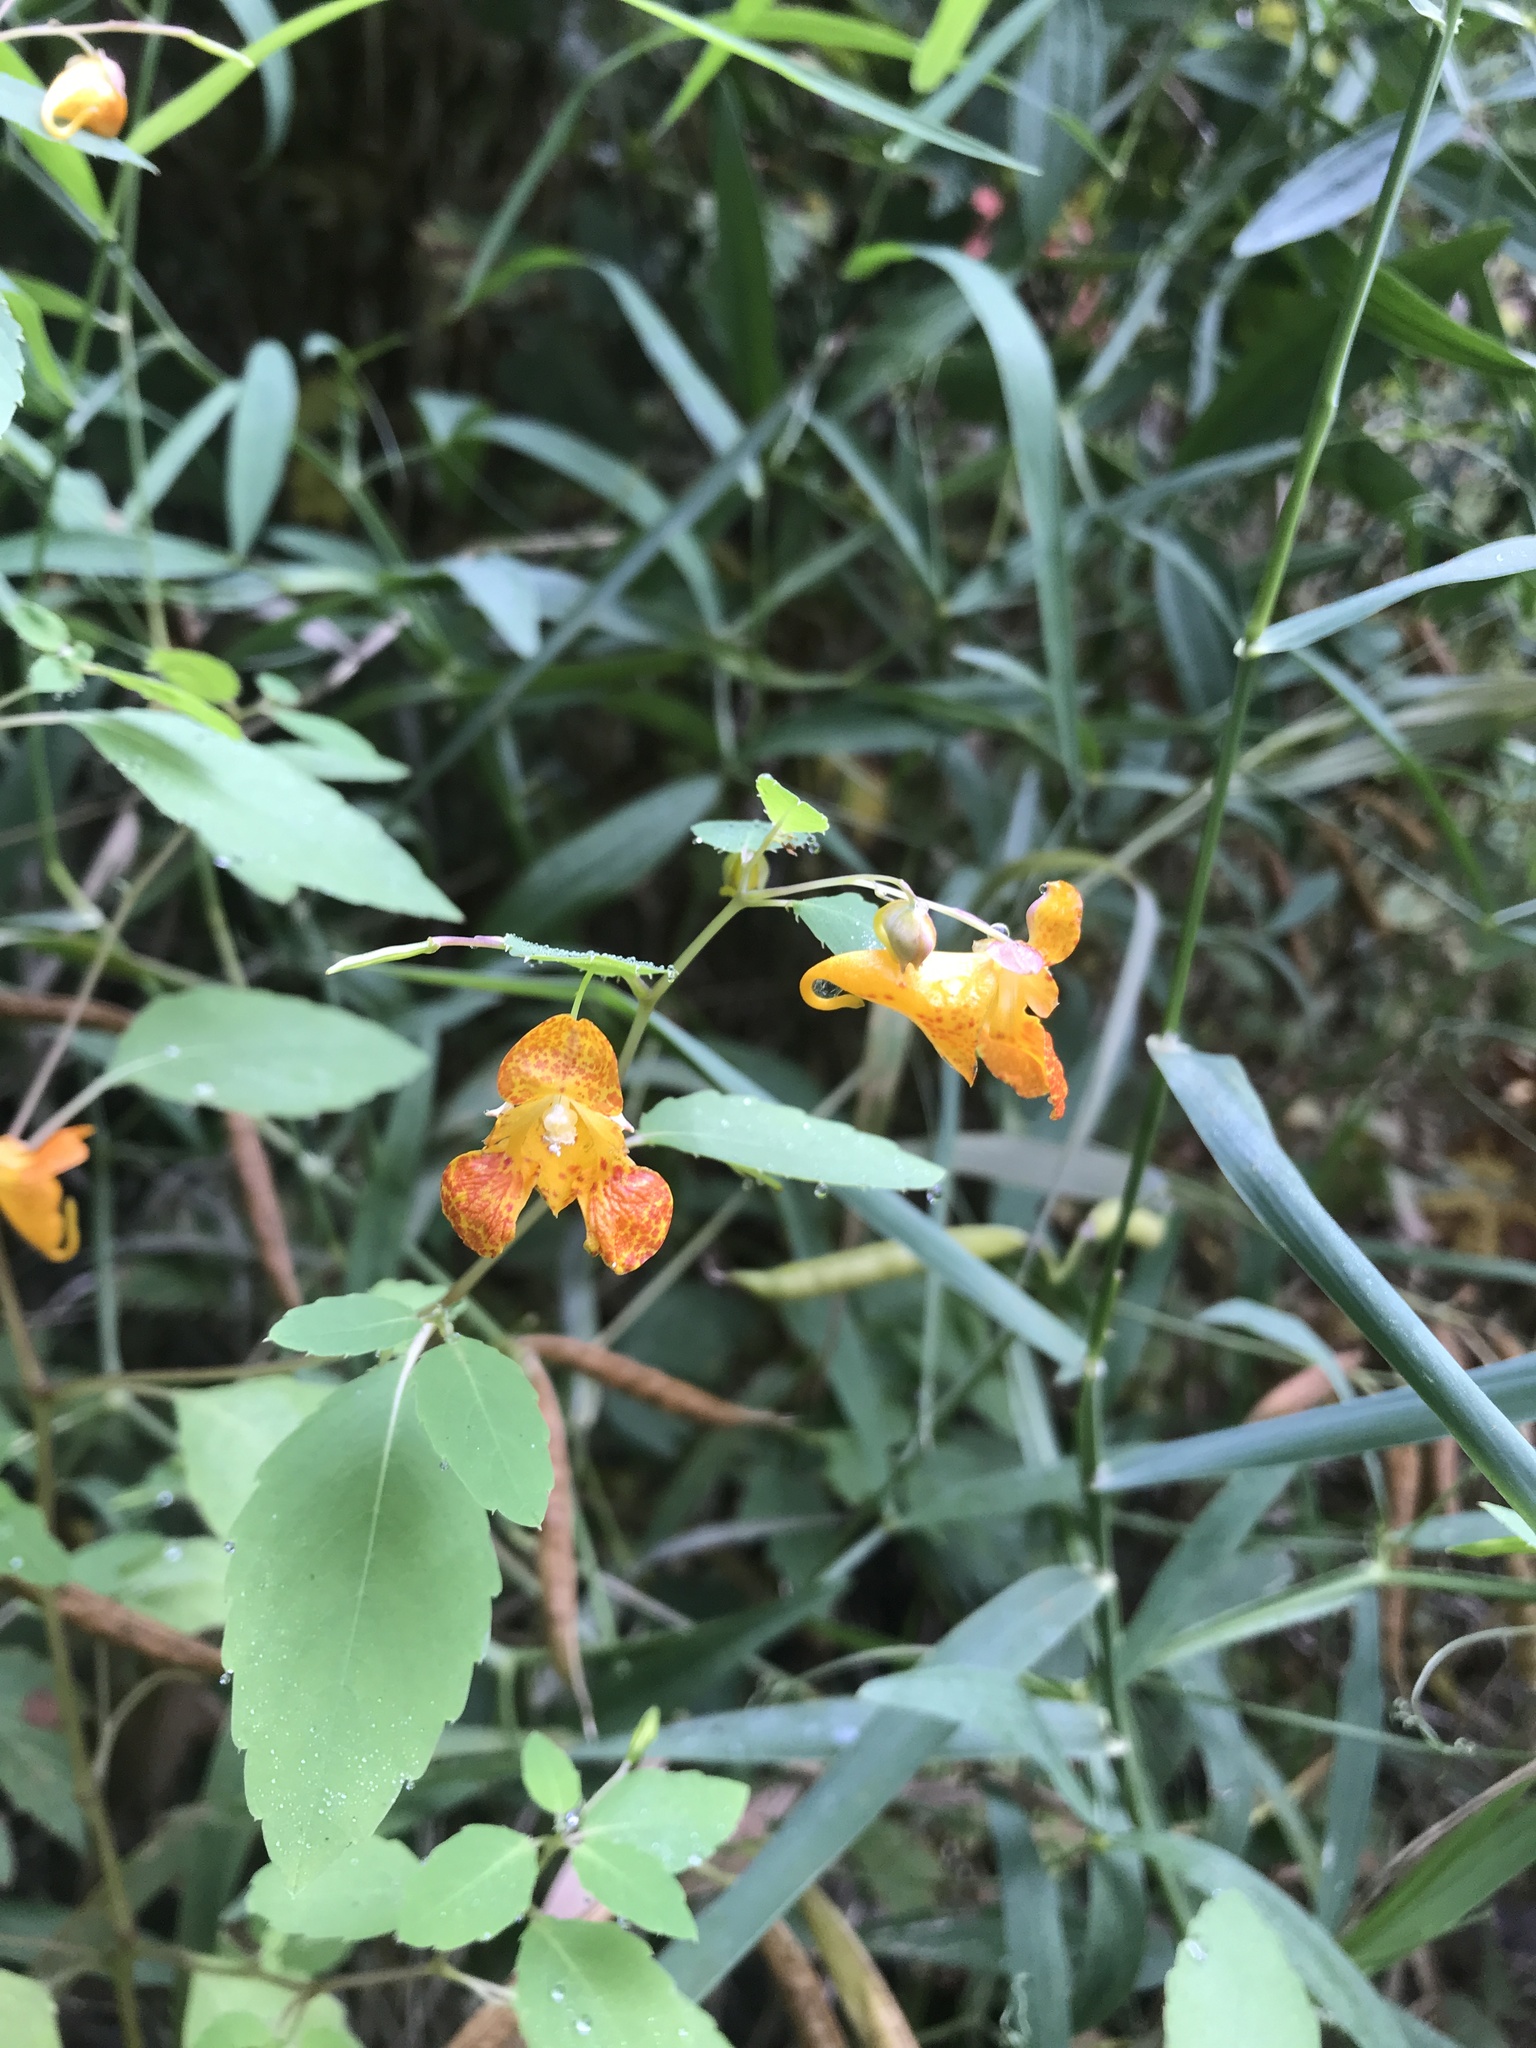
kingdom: Plantae
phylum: Tracheophyta
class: Magnoliopsida
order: Ericales
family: Balsaminaceae
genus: Impatiens
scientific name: Impatiens capensis
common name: Orange balsam
